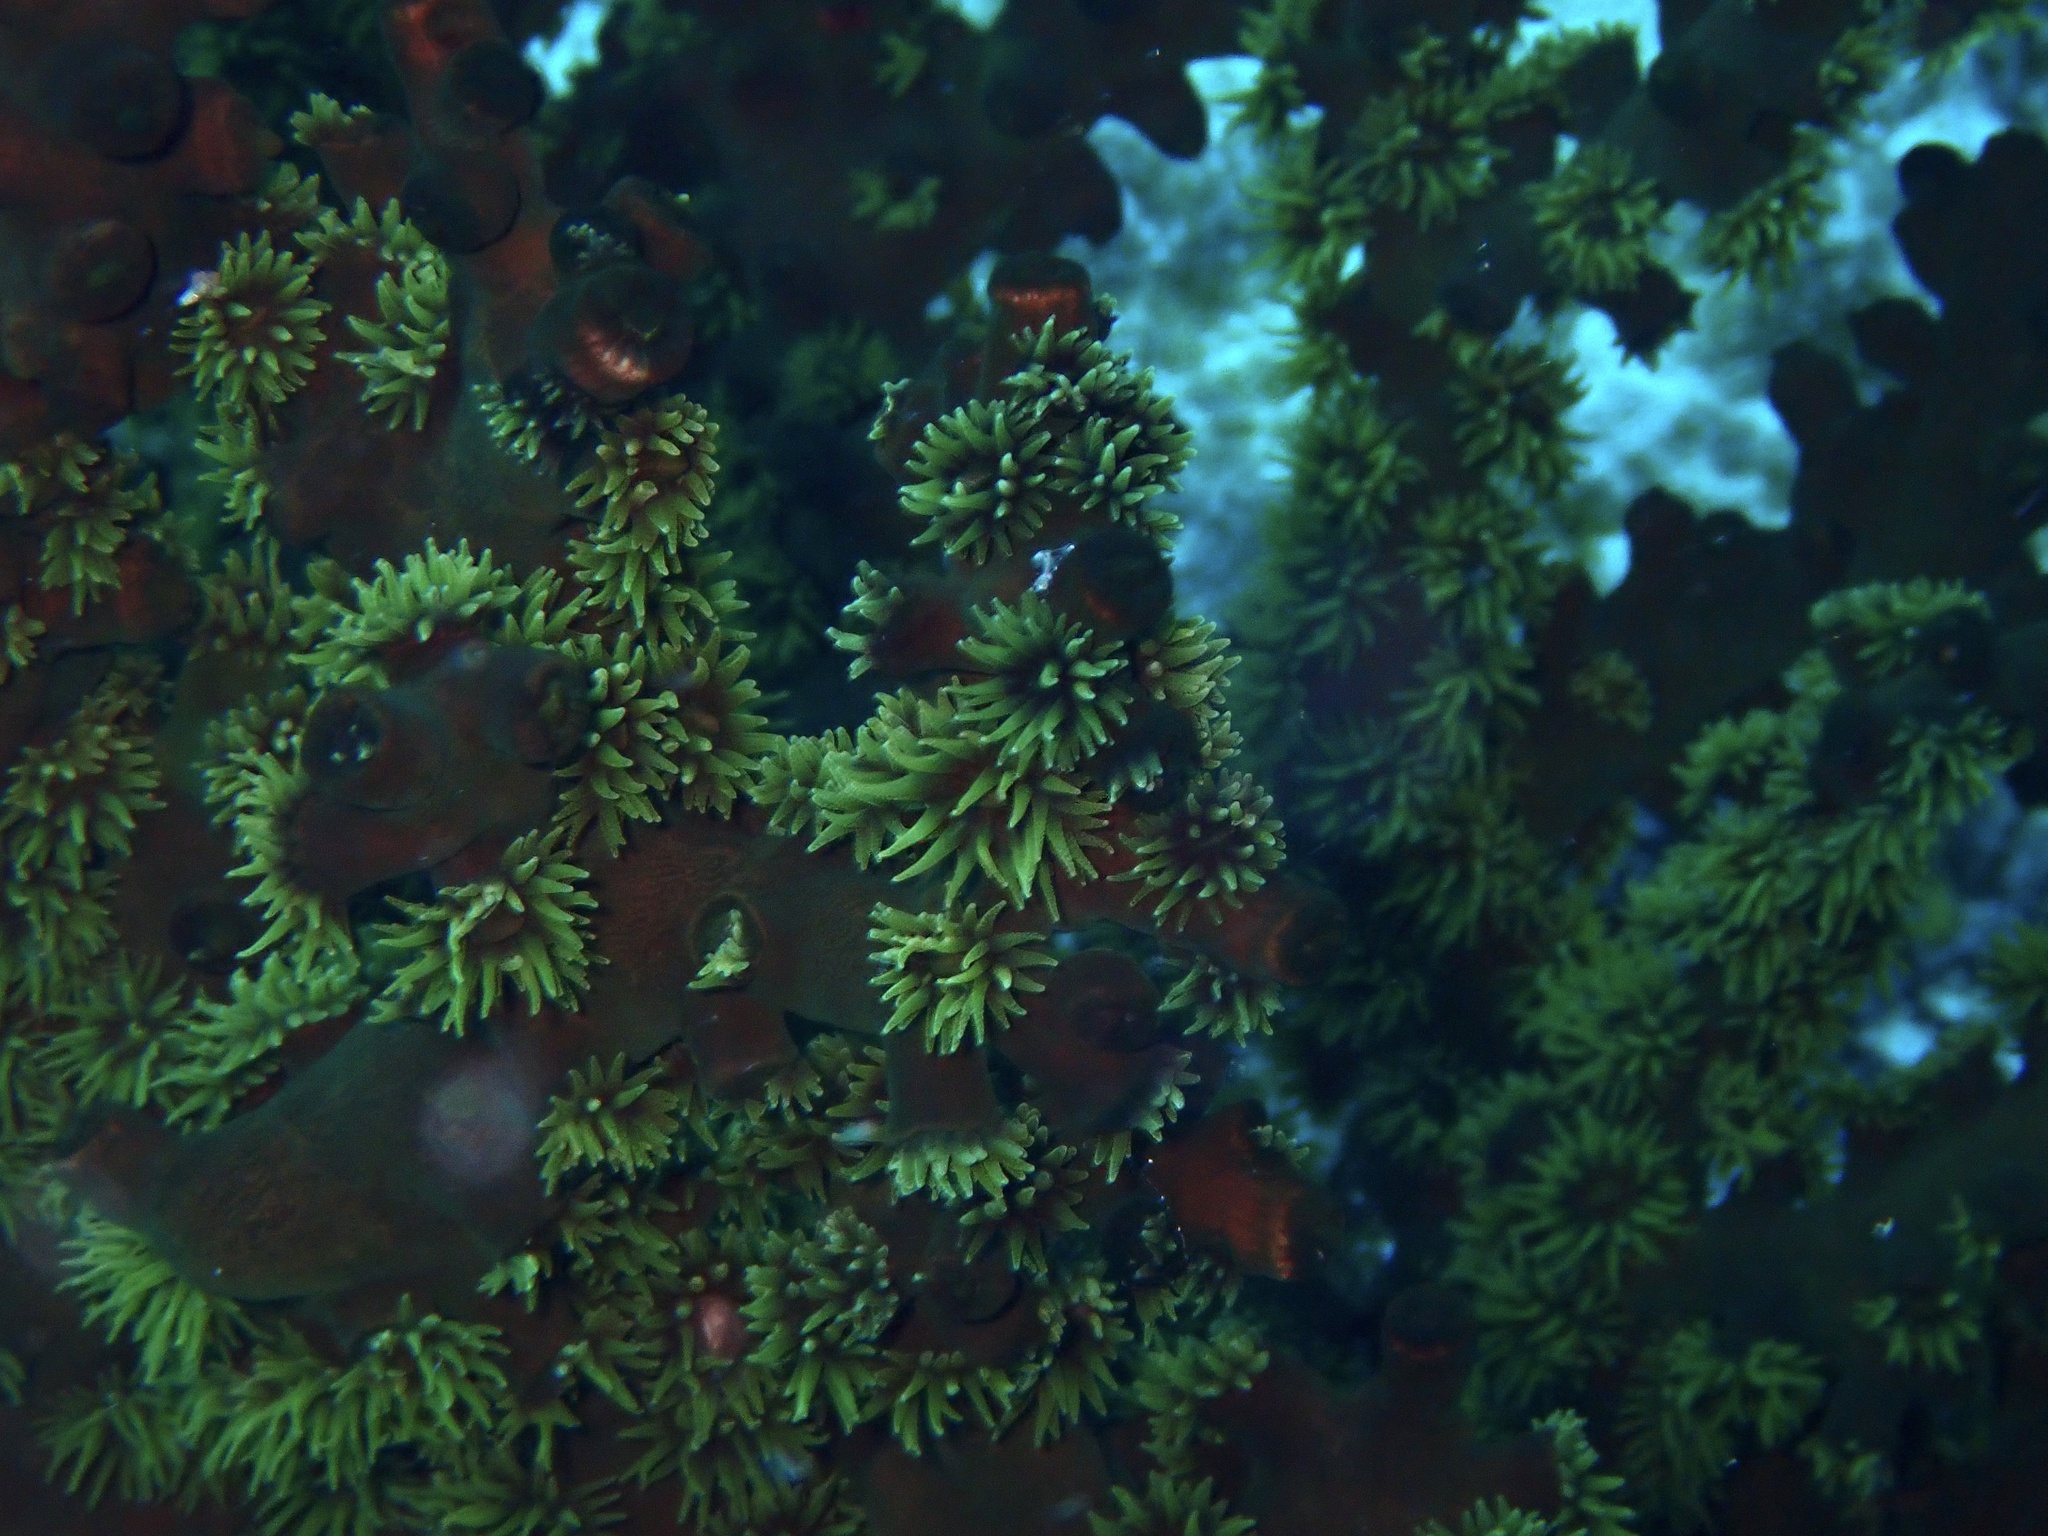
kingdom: Animalia
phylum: Cnidaria
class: Anthozoa
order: Scleractinia
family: Dendrophylliidae
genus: Tubastraea
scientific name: Tubastraea micranthus
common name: Black sun coral
